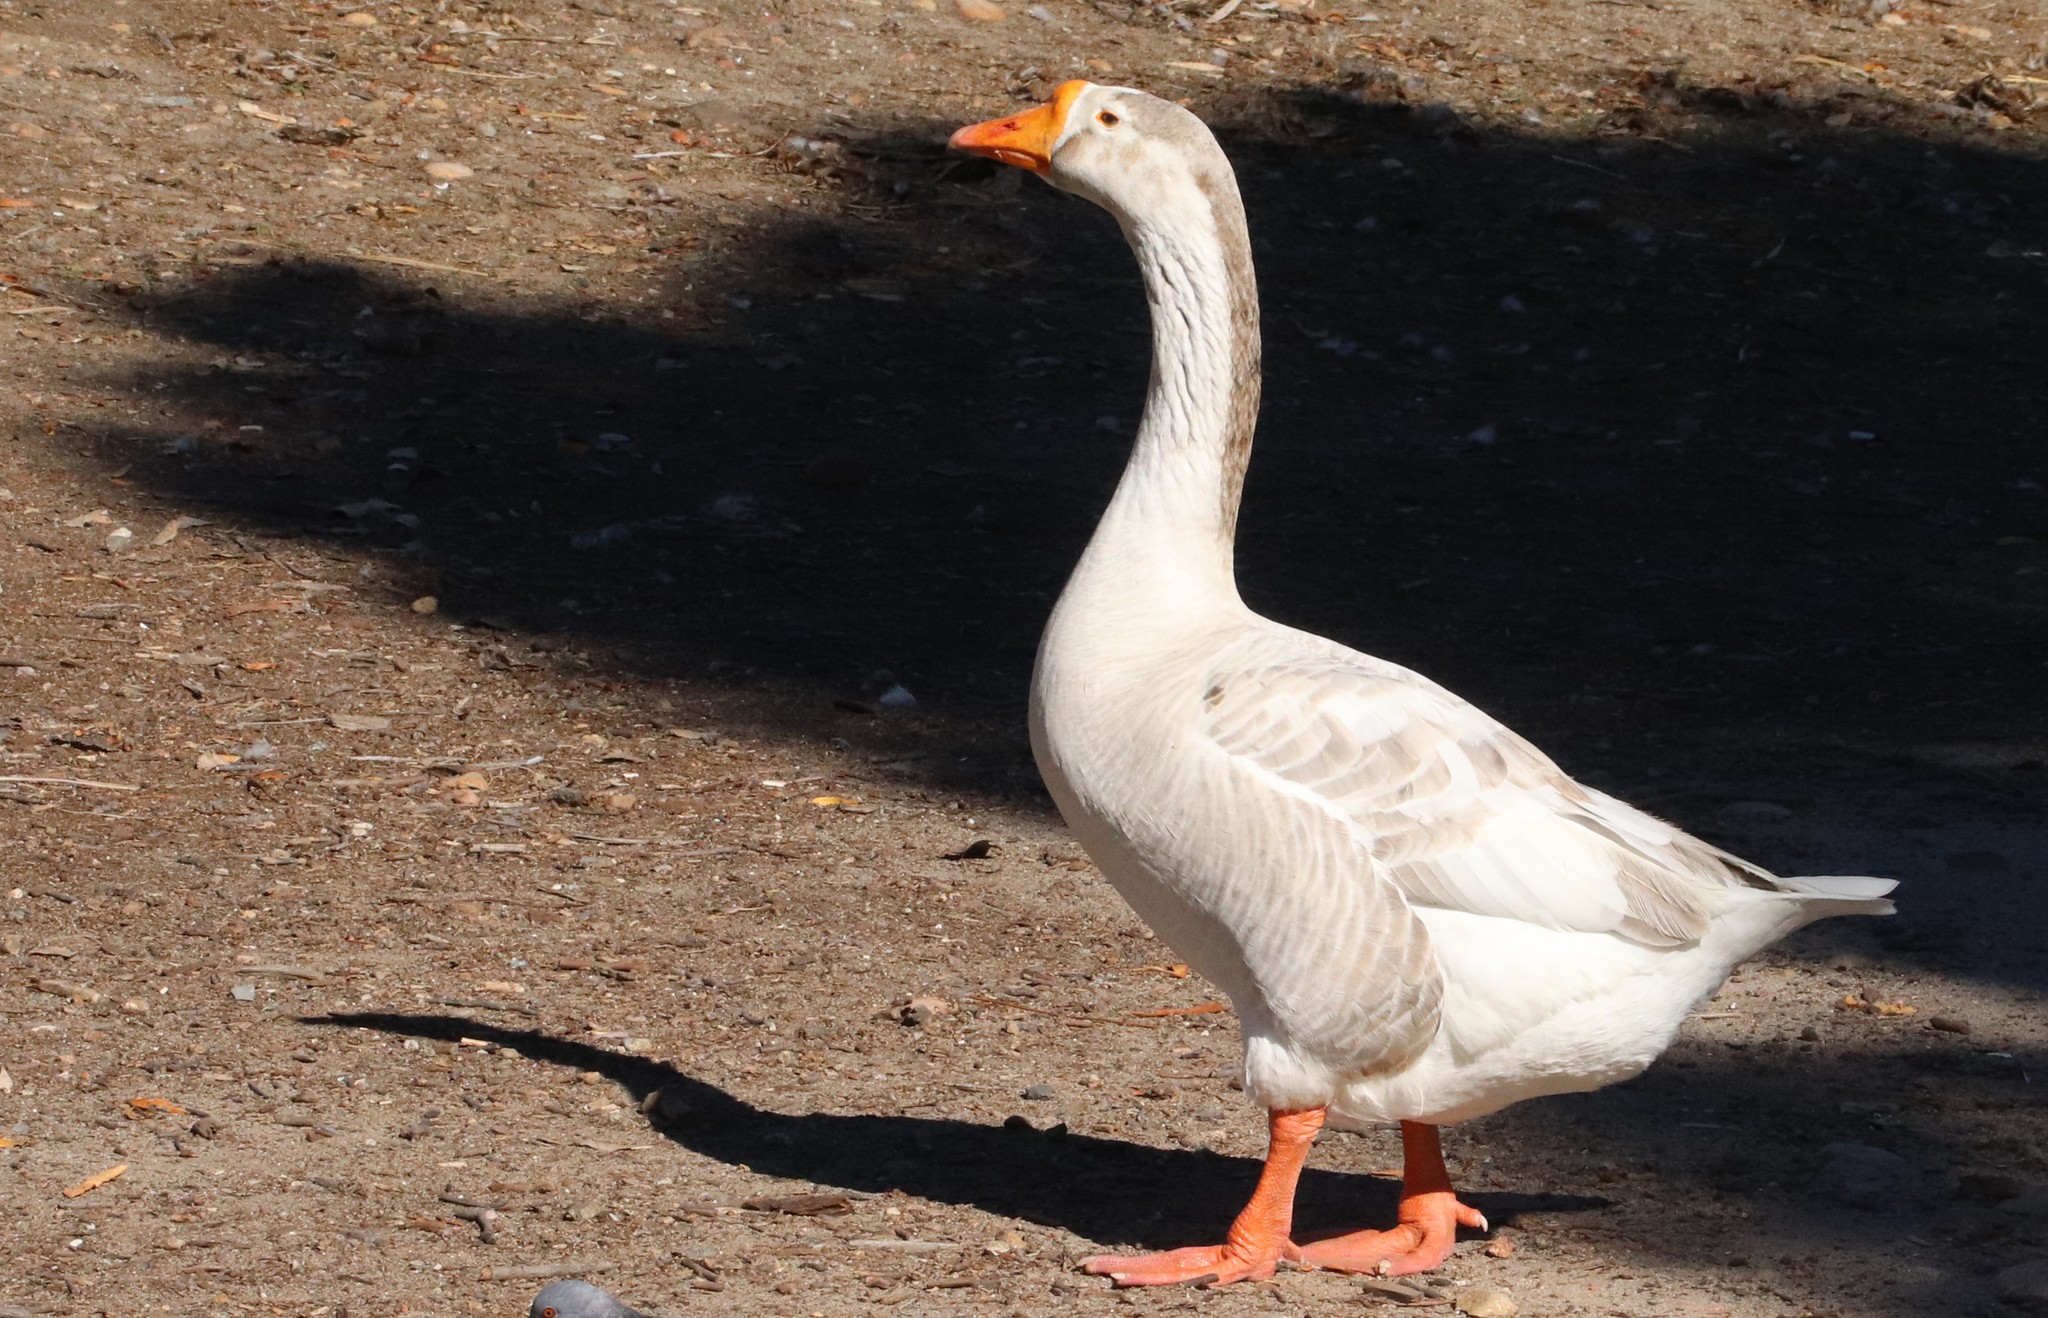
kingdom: Animalia
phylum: Chordata
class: Aves
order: Anseriformes
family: Anatidae
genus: Anser
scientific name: Anser
